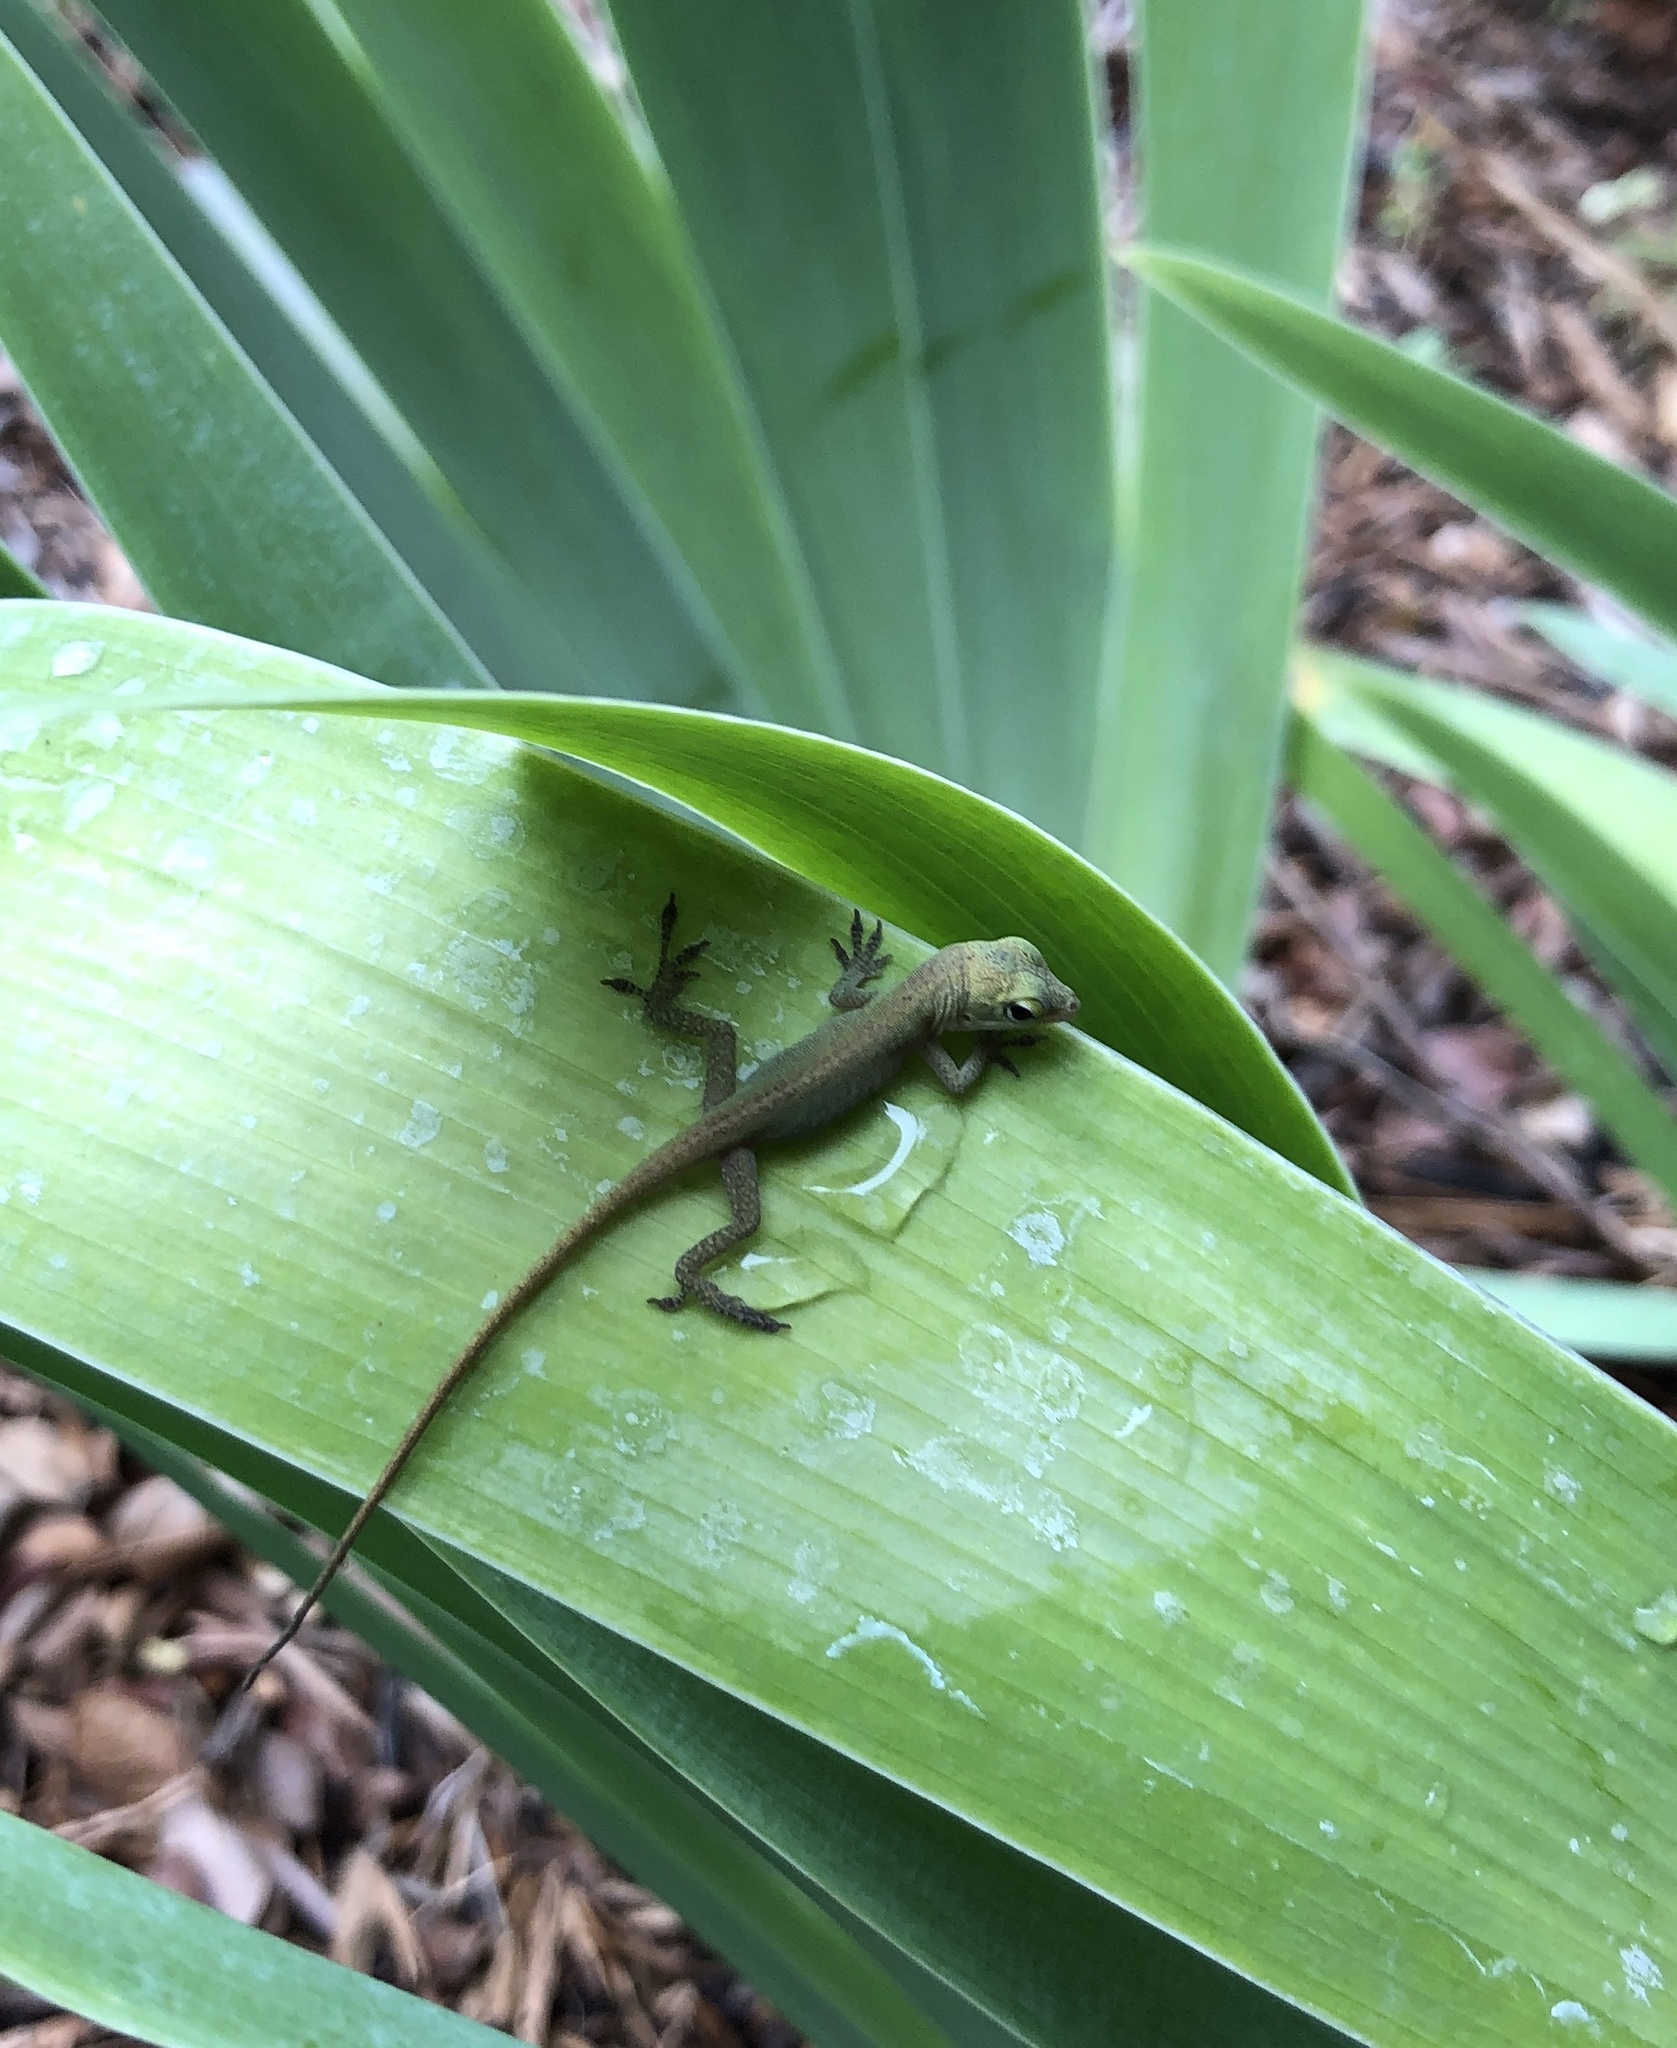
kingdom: Animalia
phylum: Chordata
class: Squamata
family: Dactyloidae
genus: Anolis
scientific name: Anolis carolinensis
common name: Green anole
